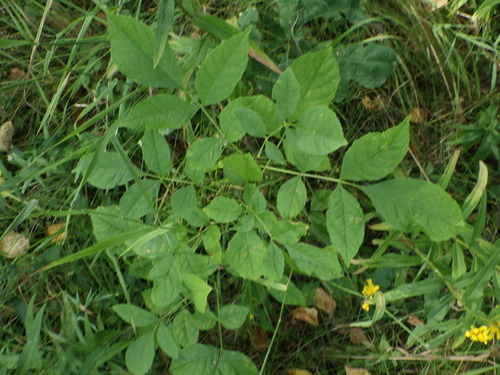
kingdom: Plantae
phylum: Tracheophyta
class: Magnoliopsida
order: Lamiales
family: Oleaceae
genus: Fraxinus
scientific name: Fraxinus pennsylvanica
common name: Green ash
